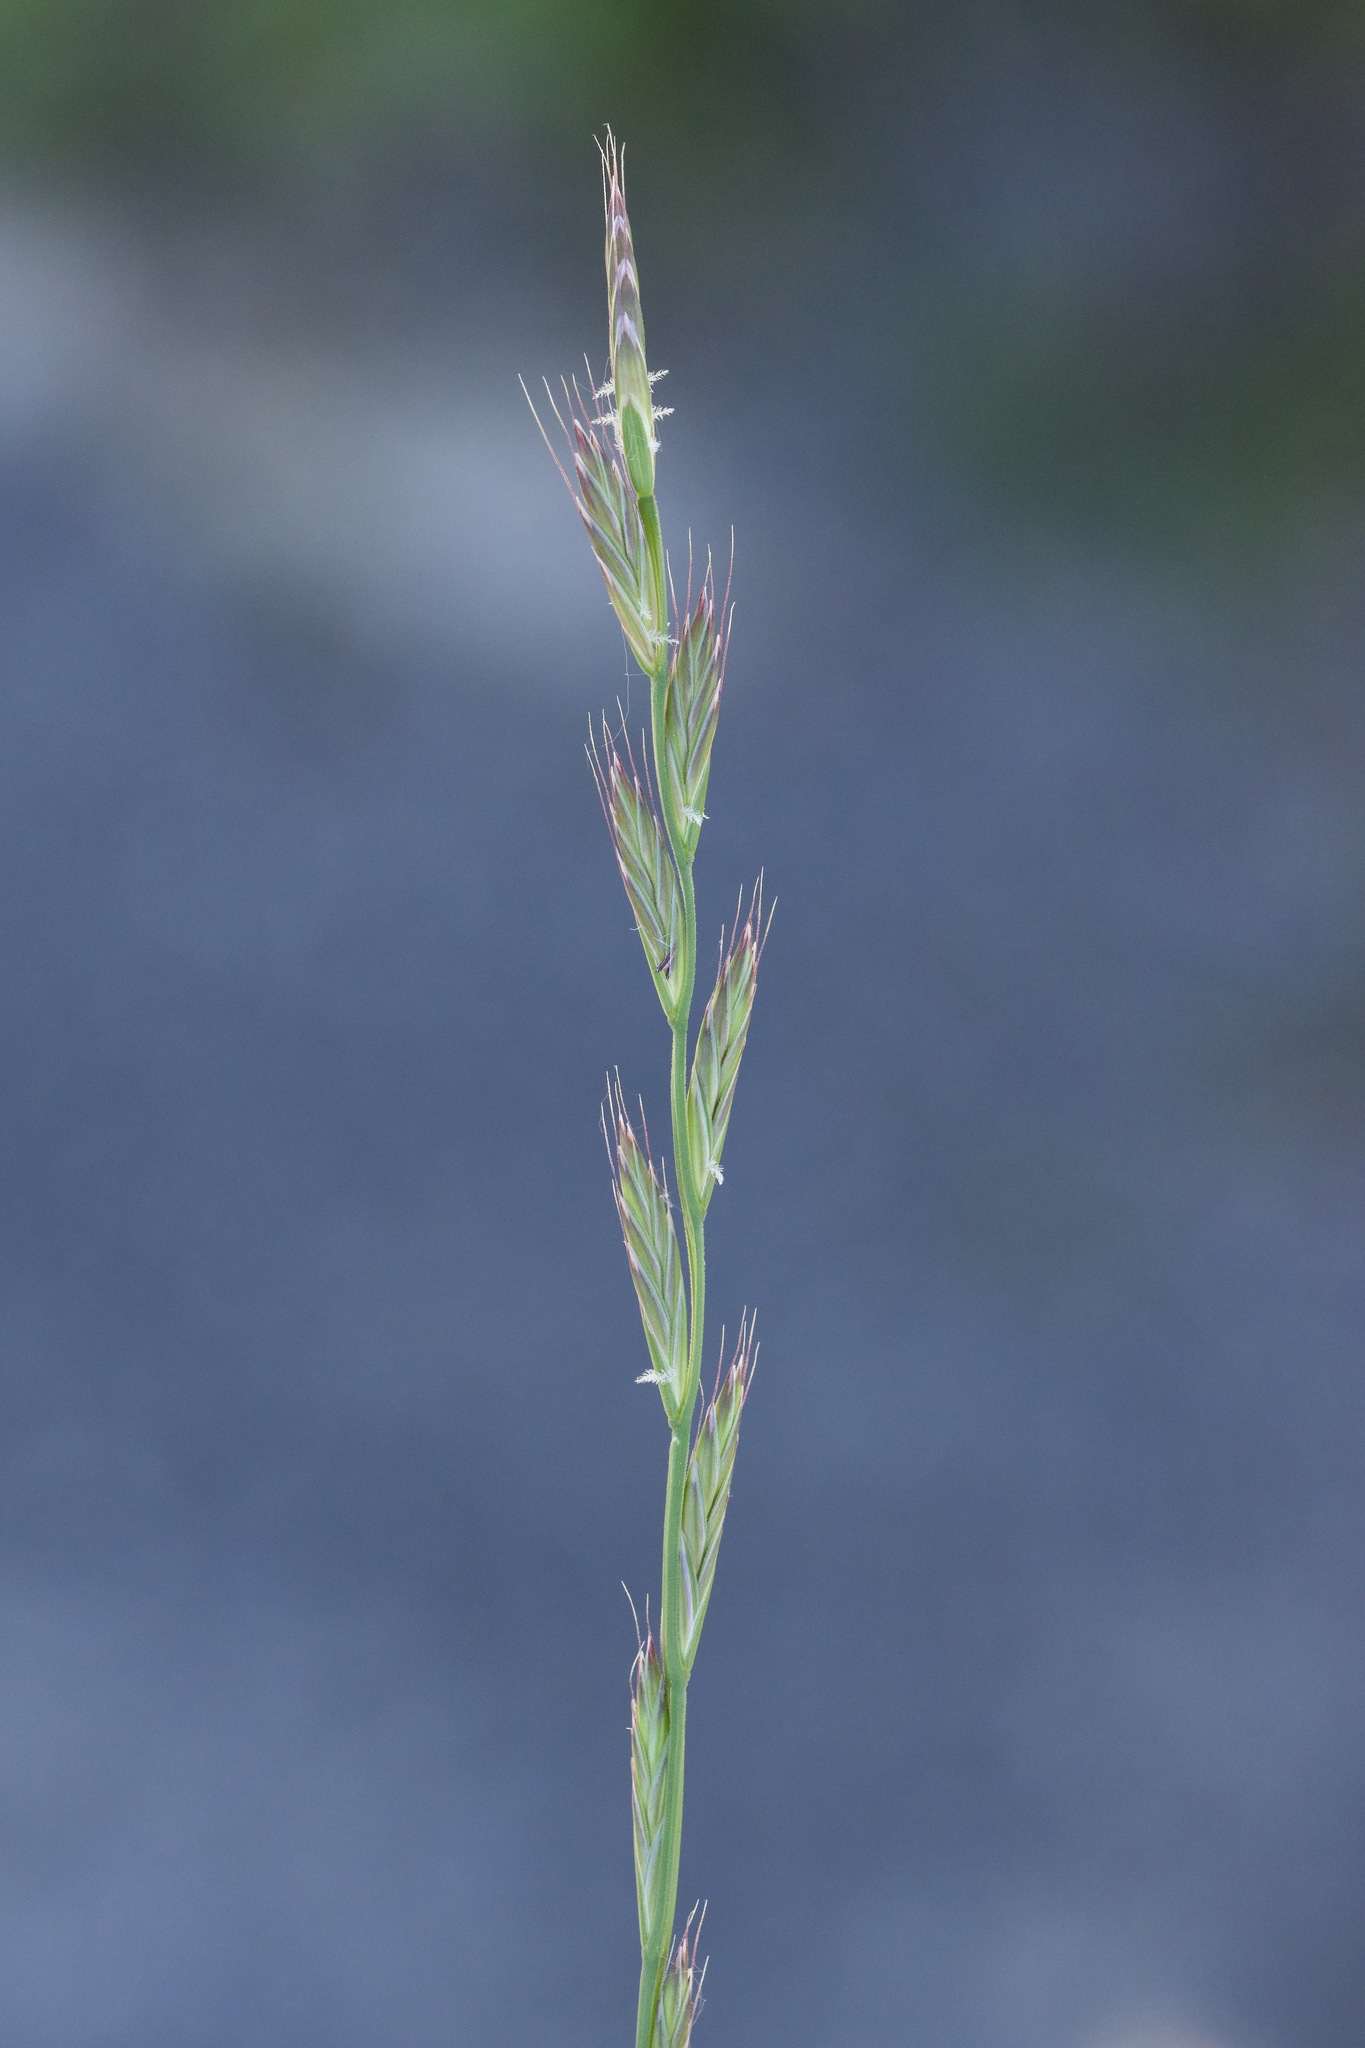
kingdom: Plantae
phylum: Tracheophyta
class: Liliopsida
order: Poales
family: Poaceae
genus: Lolium
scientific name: Lolium multiflorum
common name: Annual ryegrass
